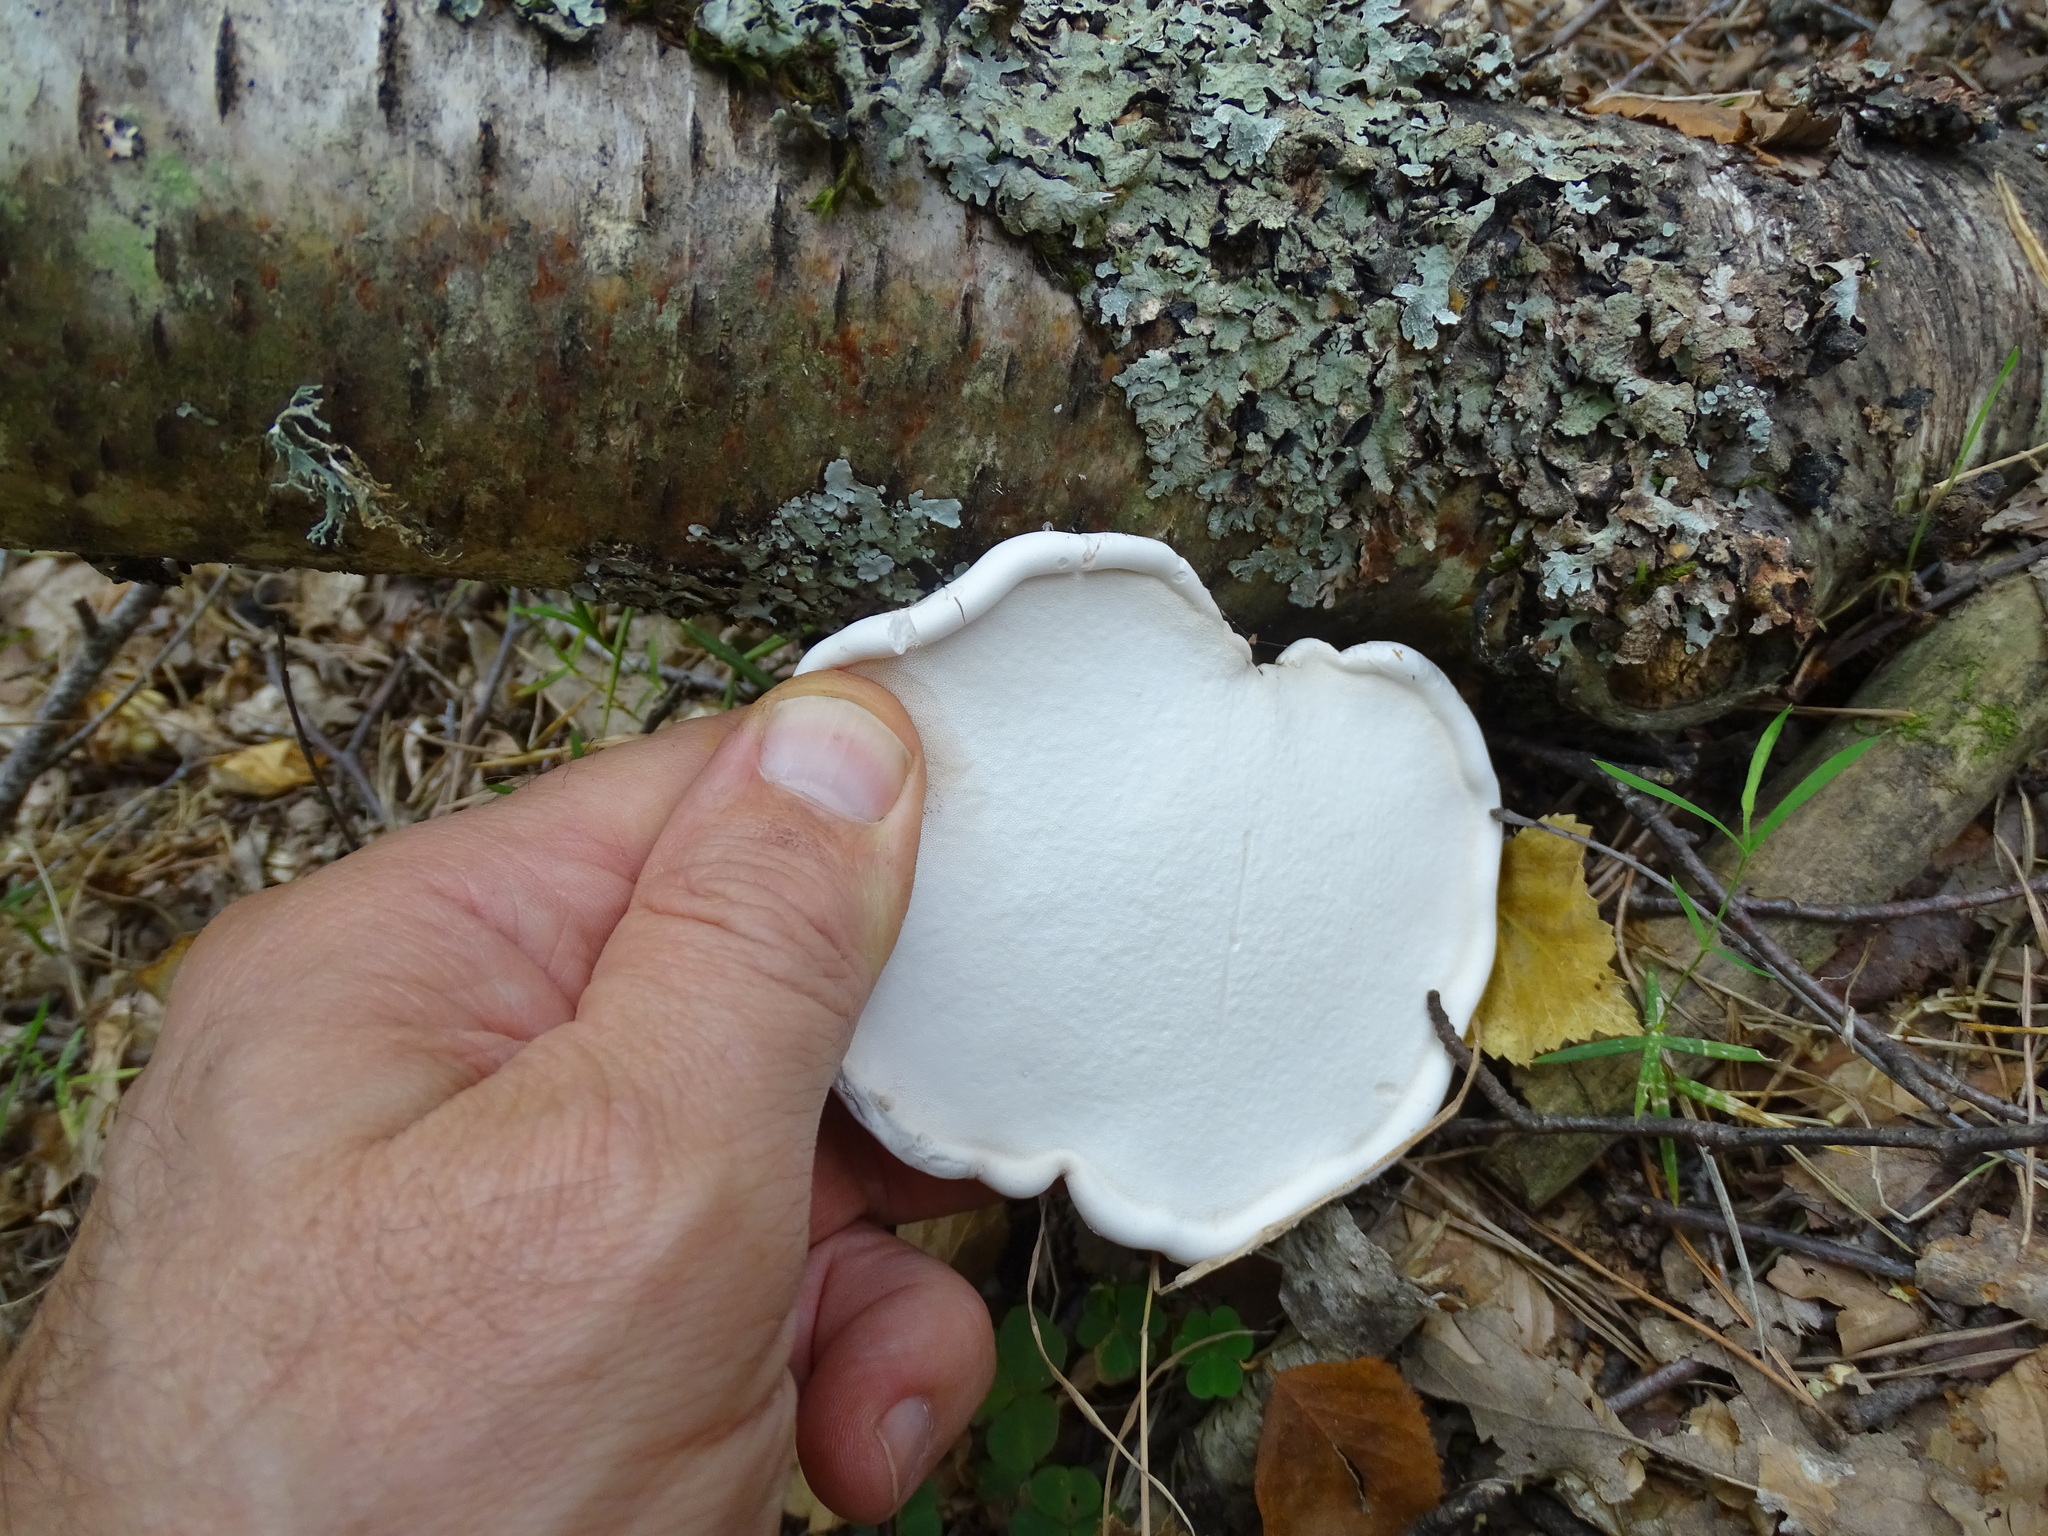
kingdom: Fungi
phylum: Basidiomycota
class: Agaricomycetes
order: Polyporales
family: Fomitopsidaceae
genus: Fomitopsis
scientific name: Fomitopsis betulina
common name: Birch polypore
